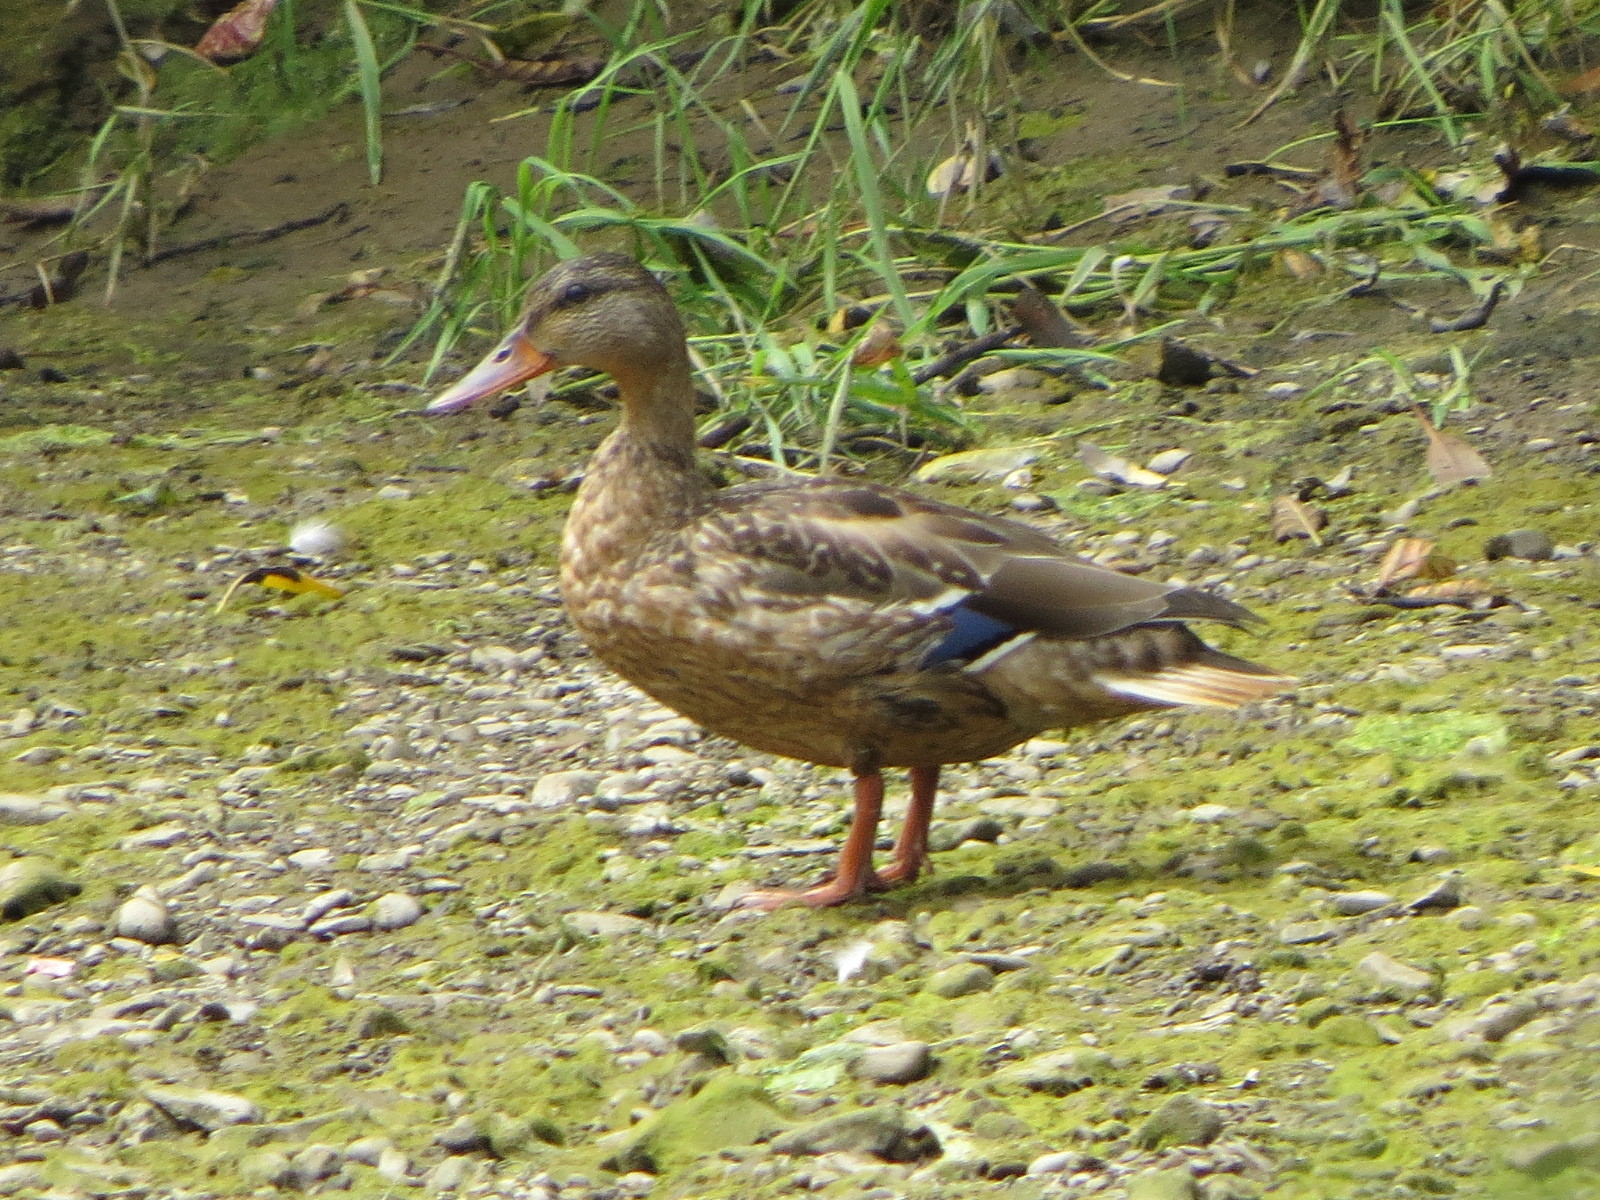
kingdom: Animalia
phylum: Chordata
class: Aves
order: Anseriformes
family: Anatidae
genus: Anas
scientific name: Anas platyrhynchos
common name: Mallard
